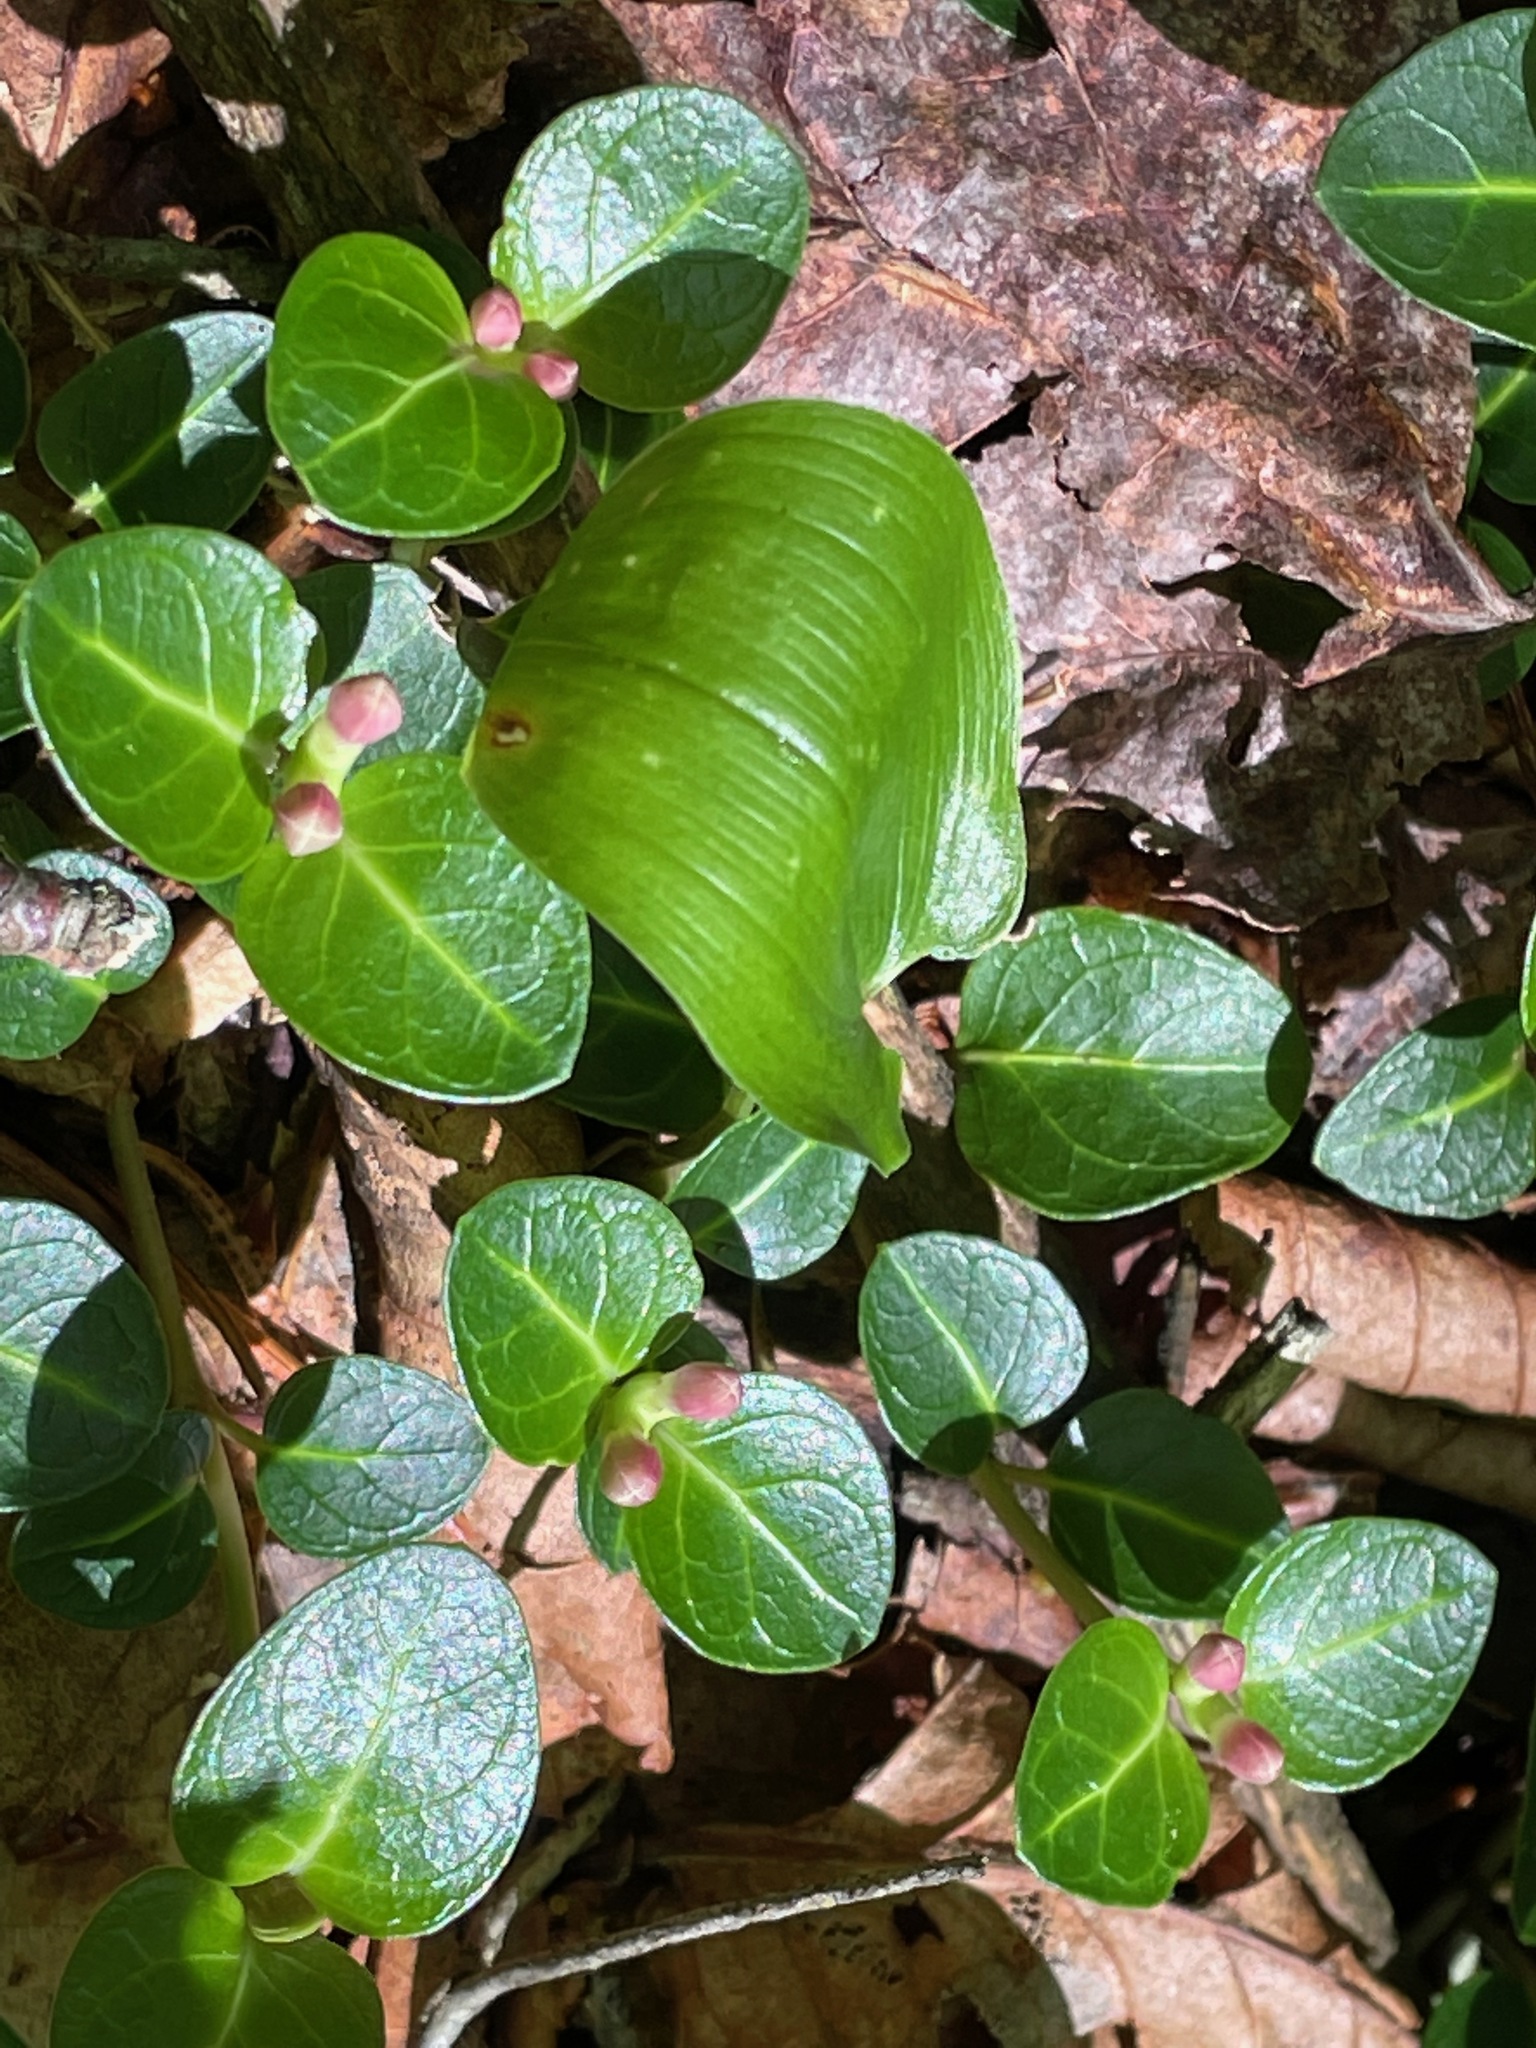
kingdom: Plantae
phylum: Tracheophyta
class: Magnoliopsida
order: Gentianales
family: Rubiaceae
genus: Mitchella
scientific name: Mitchella repens
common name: Partridge-berry
